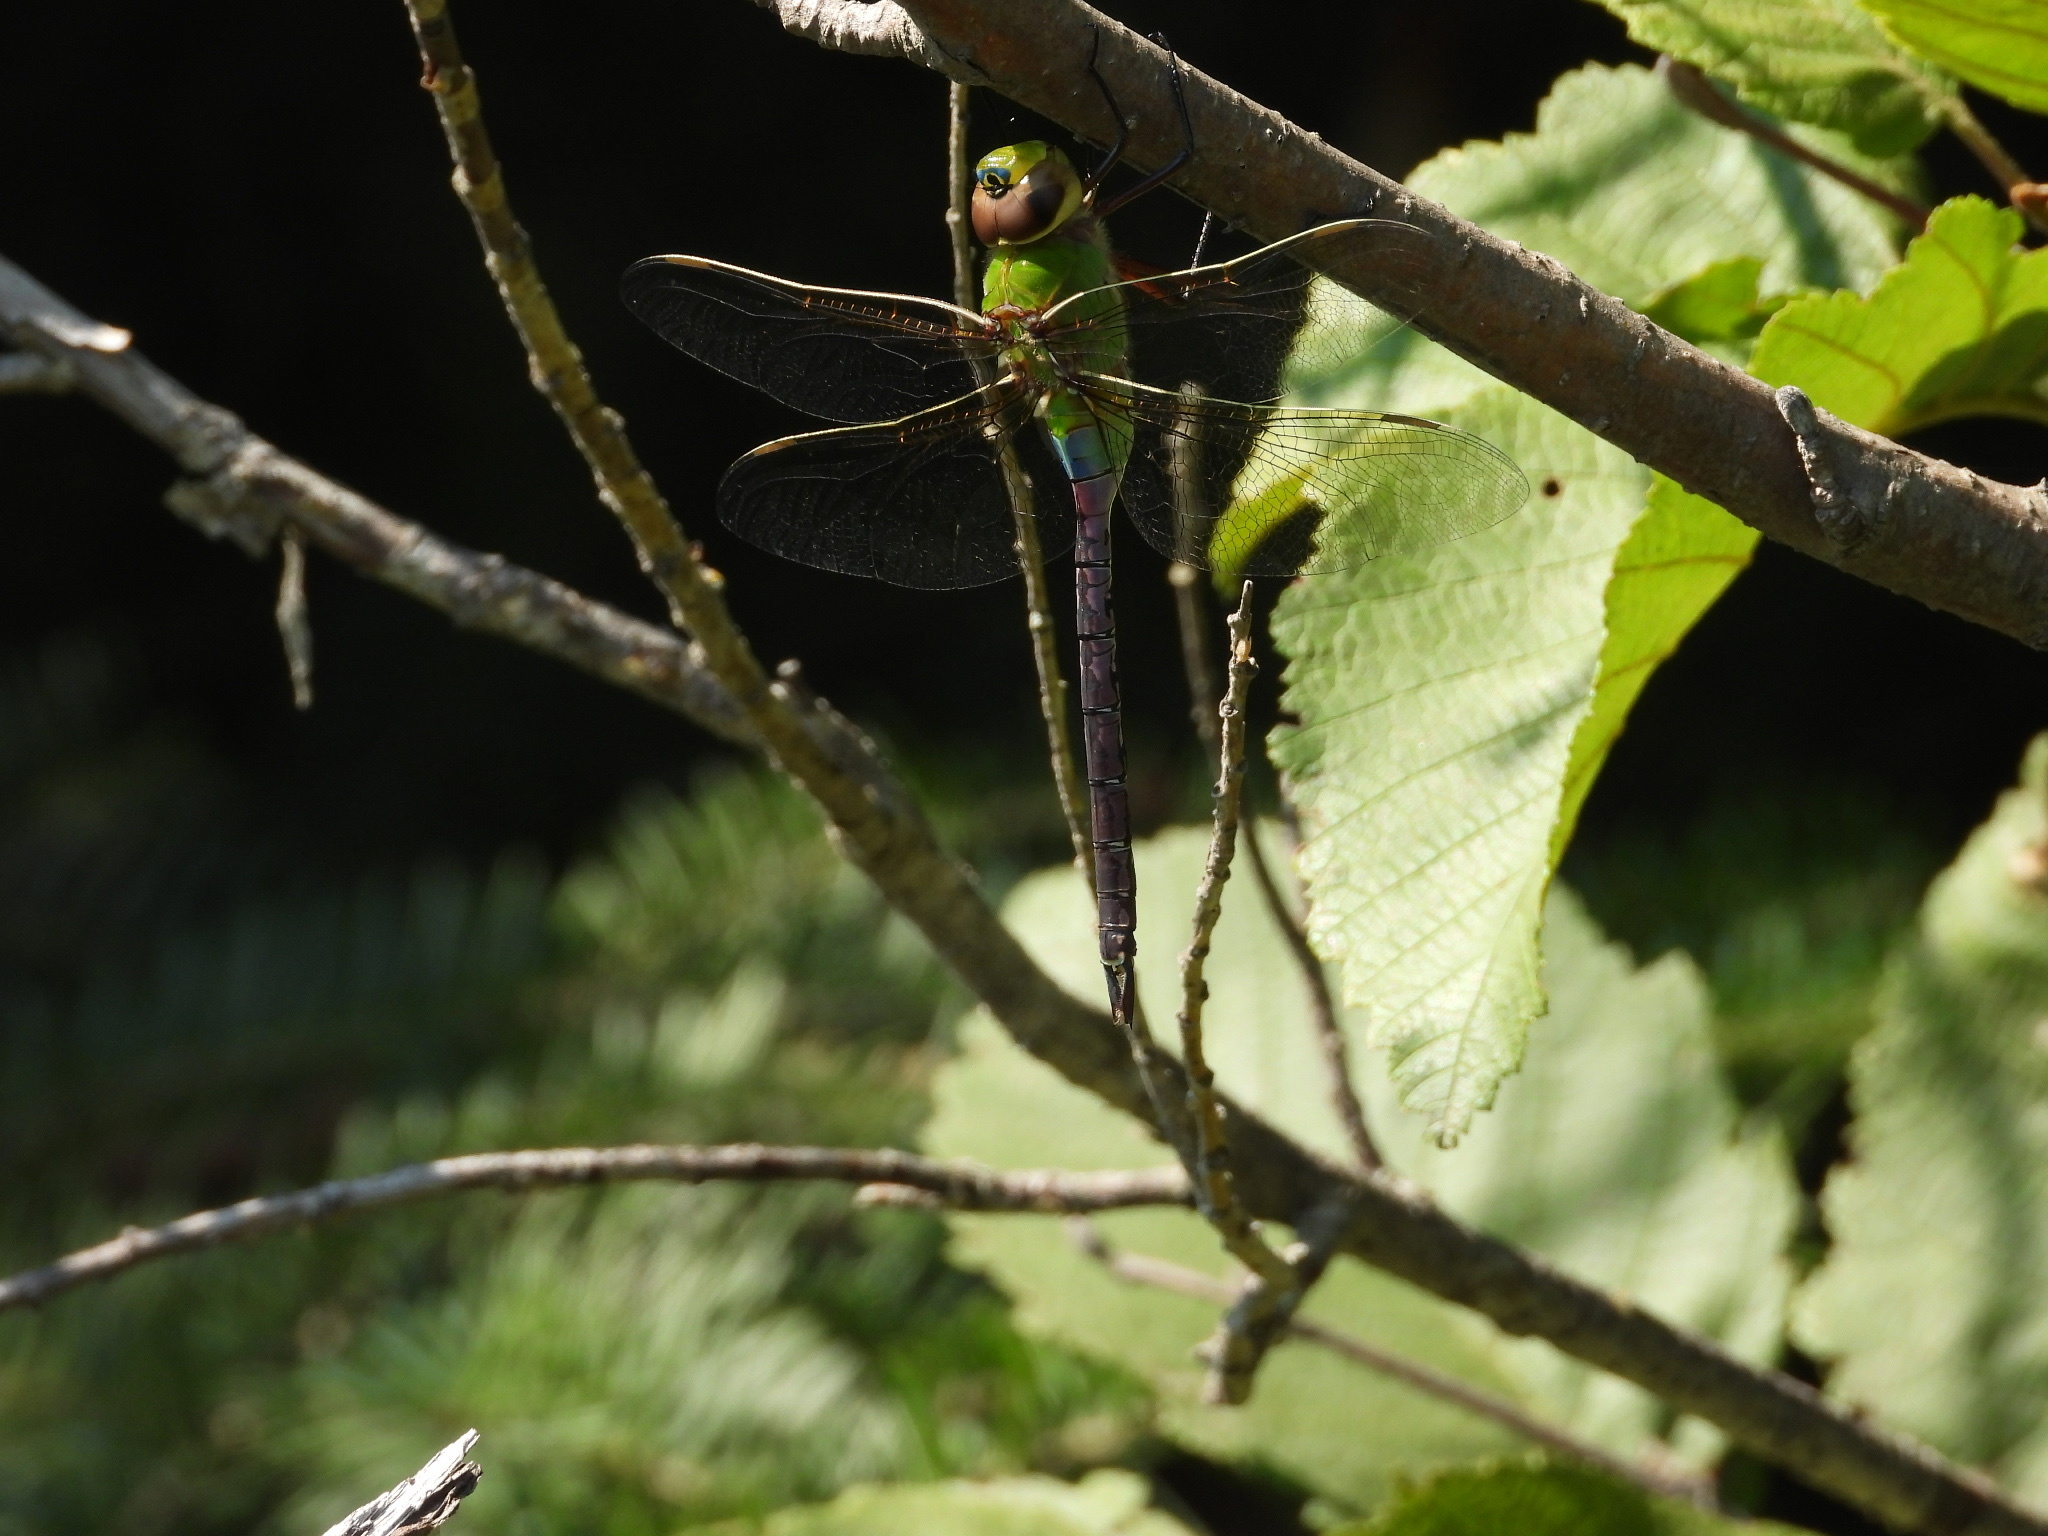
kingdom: Animalia
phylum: Arthropoda
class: Insecta
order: Odonata
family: Aeshnidae
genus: Anax
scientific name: Anax junius
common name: Common green darner
